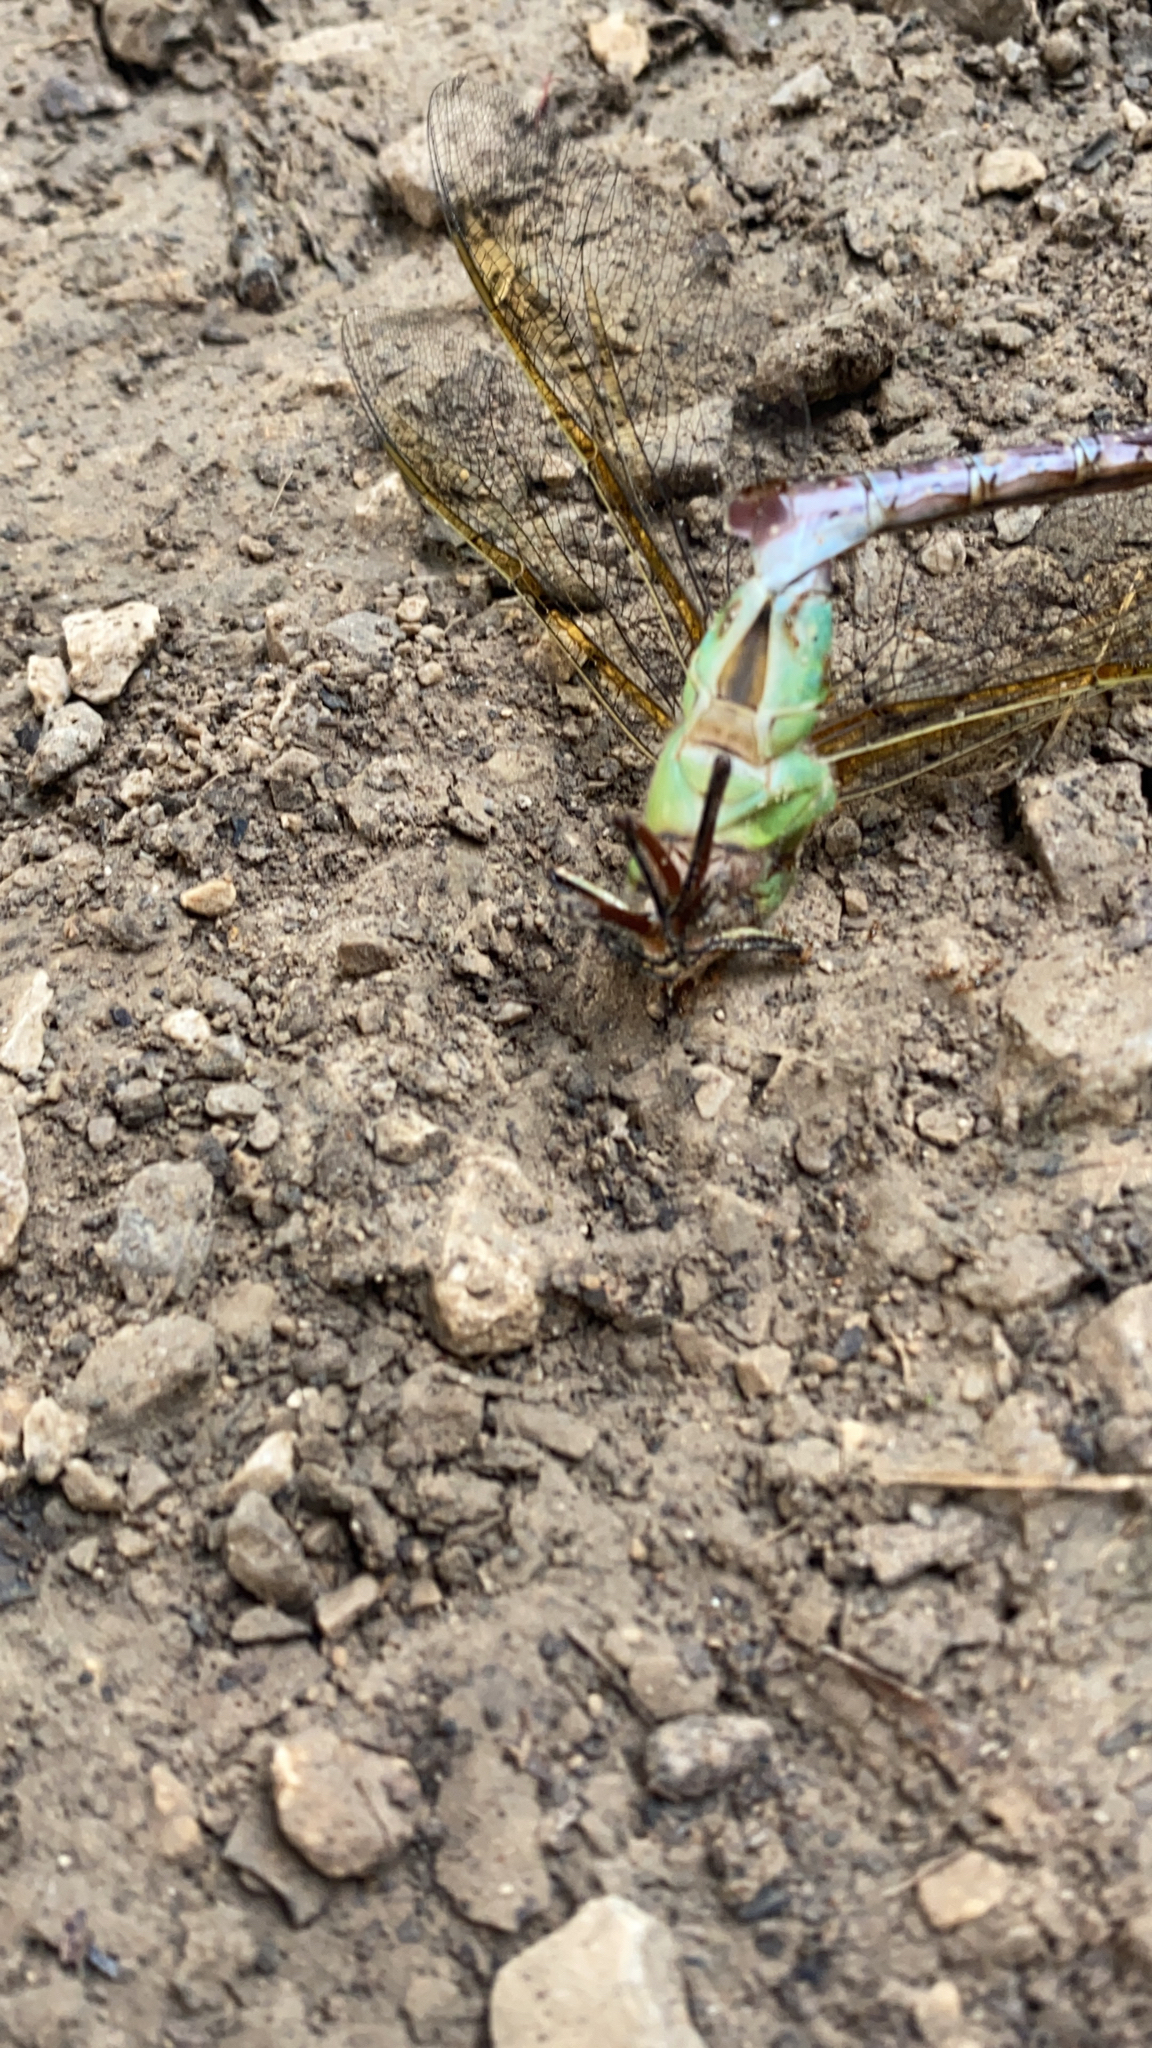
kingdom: Animalia
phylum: Arthropoda
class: Insecta
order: Odonata
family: Aeshnidae
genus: Anax
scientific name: Anax junius
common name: Common green darner
